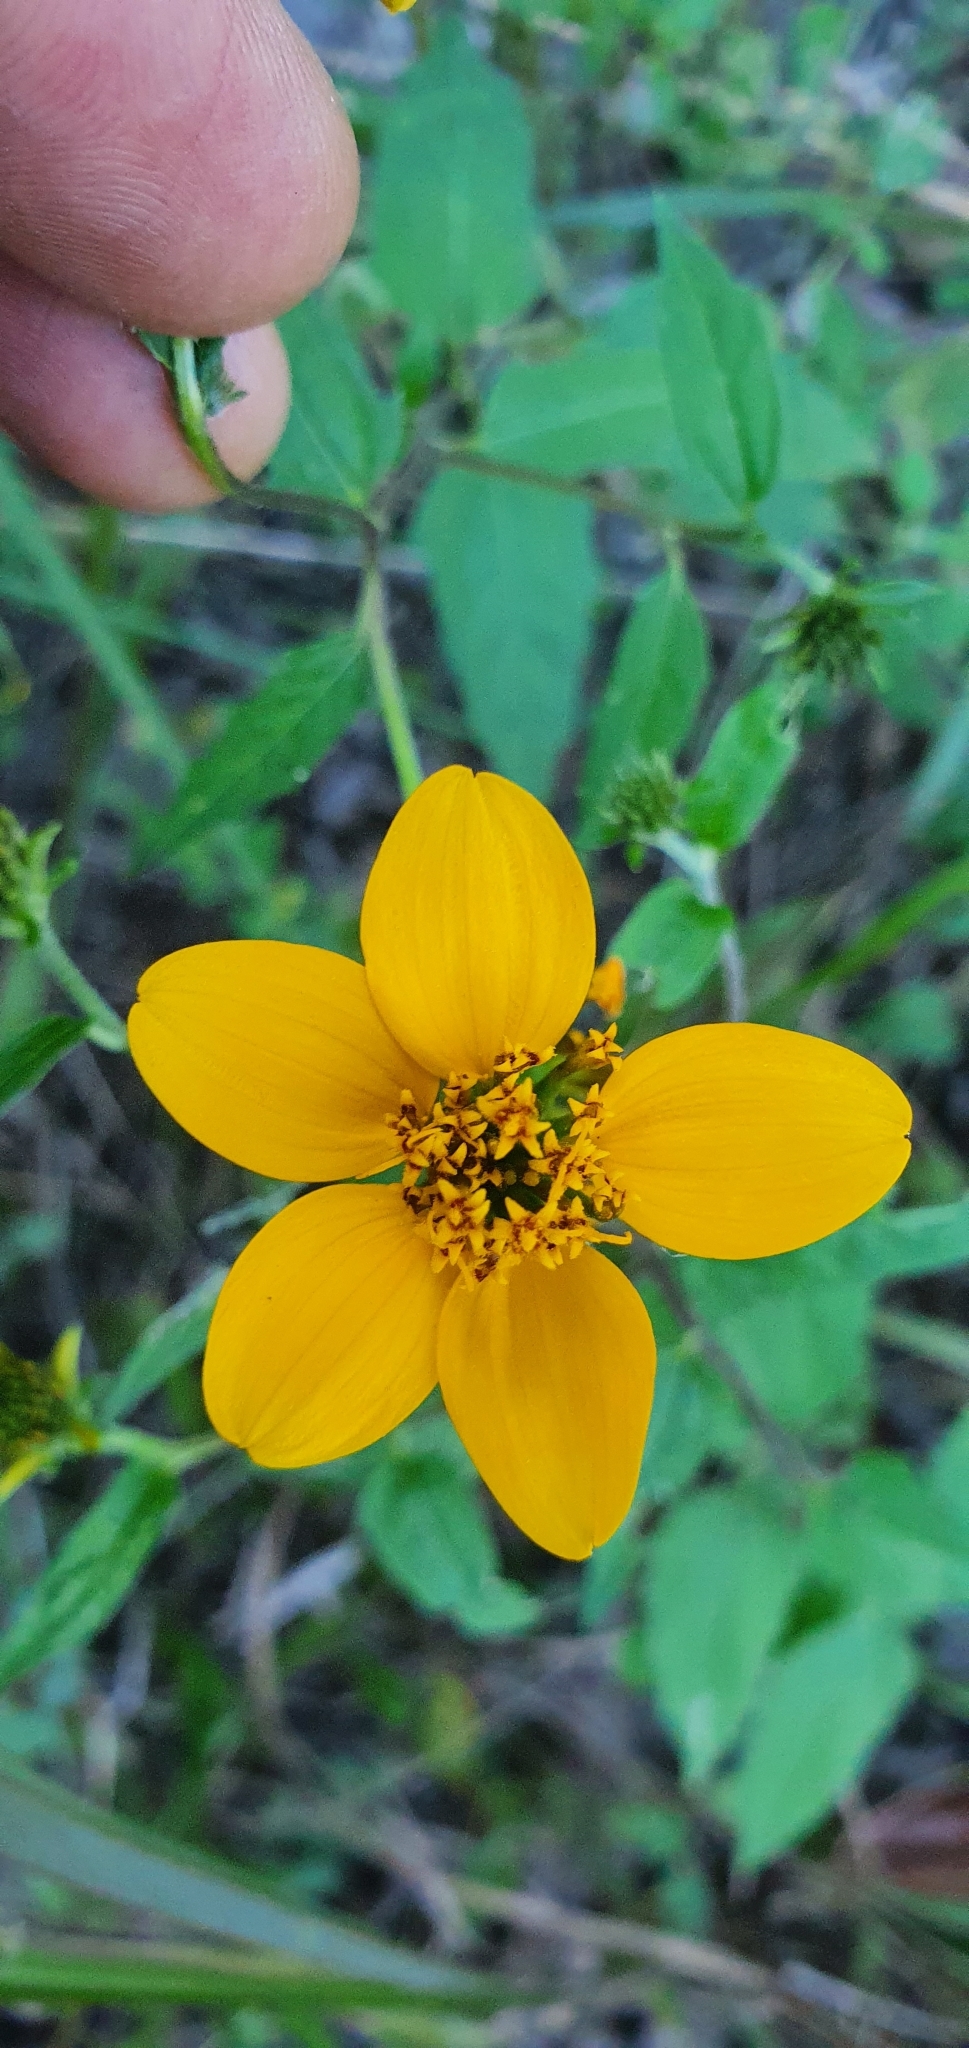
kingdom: Plantae
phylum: Tracheophyta
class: Magnoliopsida
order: Asterales
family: Asteraceae
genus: Sclerocarpus
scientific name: Sclerocarpus uniserialis
